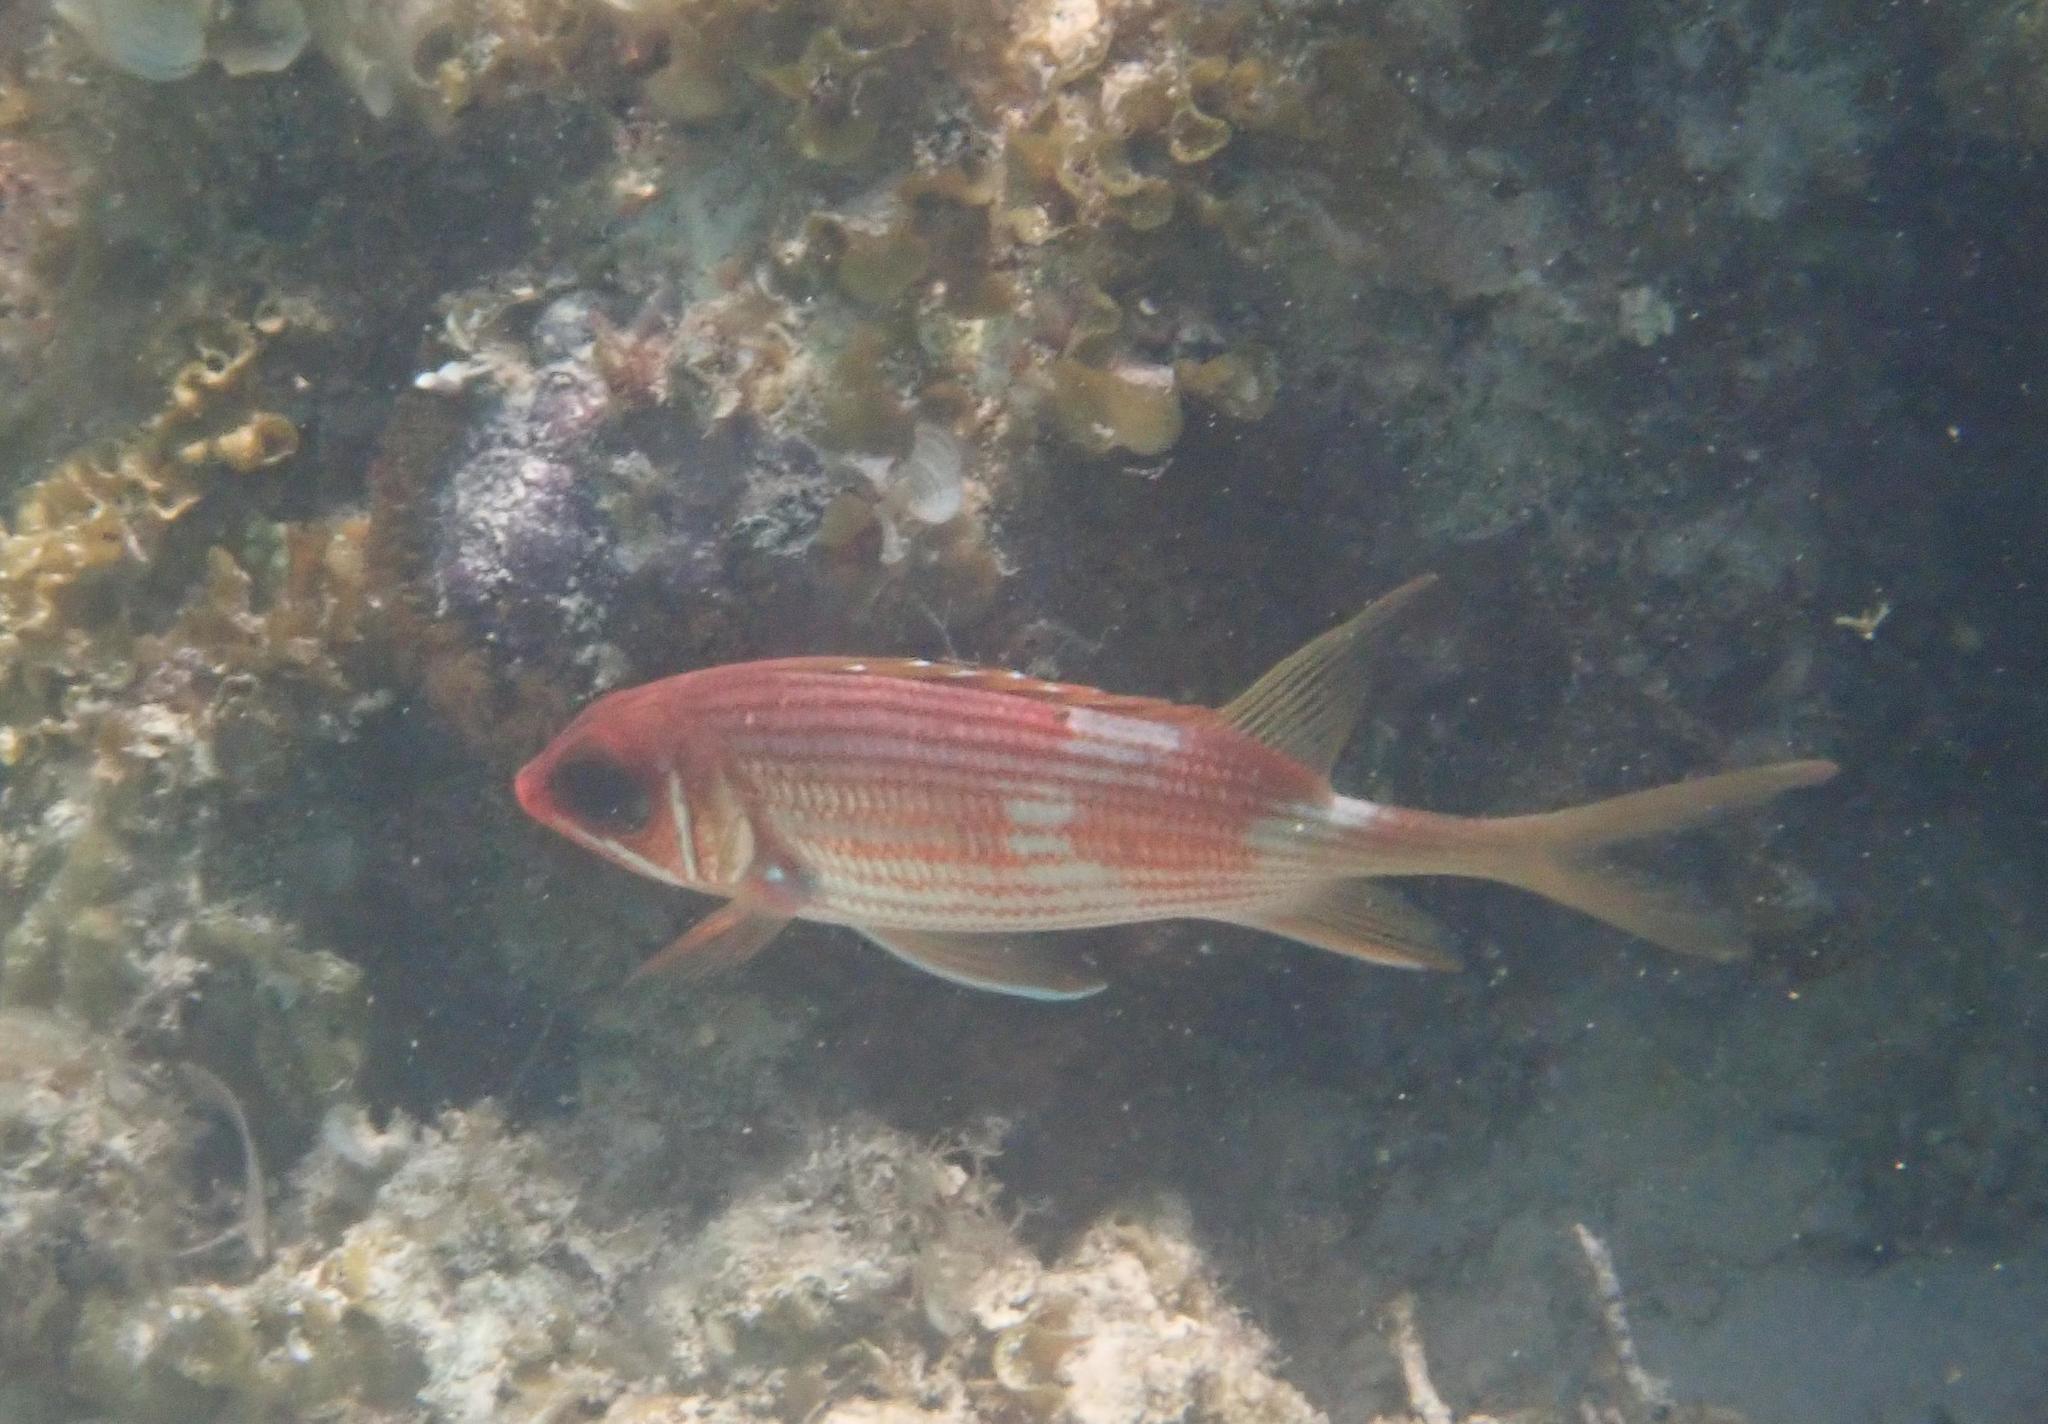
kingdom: Animalia
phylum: Chordata
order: Beryciformes
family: Holocentridae
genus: Holocentrus
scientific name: Holocentrus rufus
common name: Longspine squirrelfish
